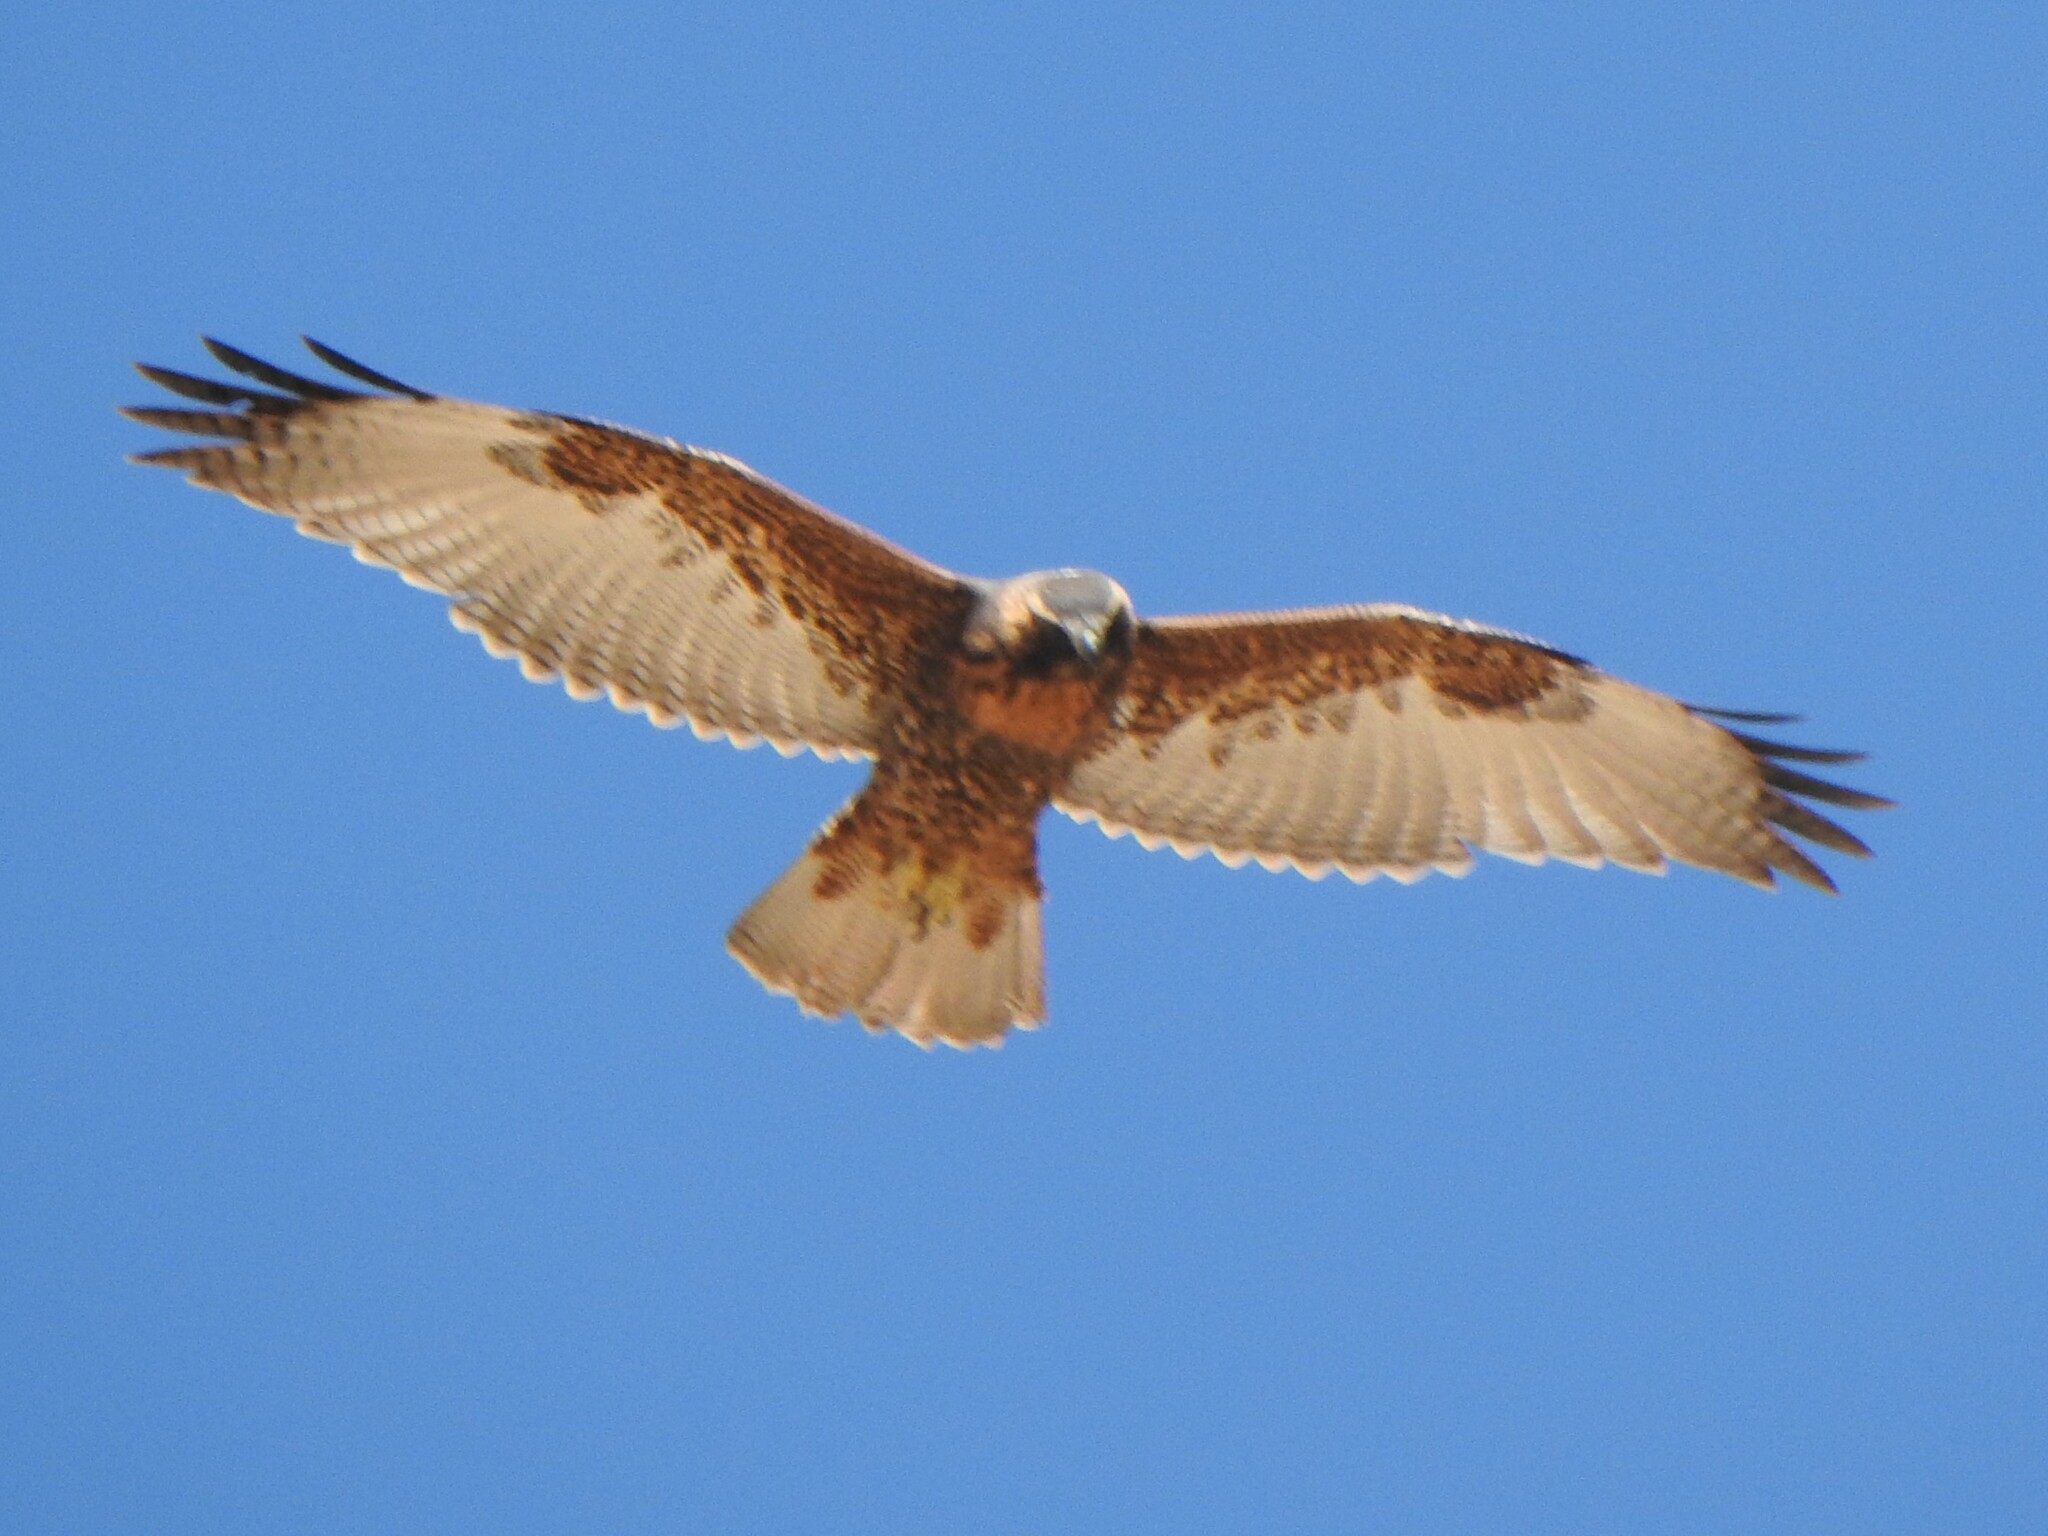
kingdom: Animalia
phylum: Chordata
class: Aves
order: Accipitriformes
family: Accipitridae
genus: Buteo
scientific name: Buteo polyosoma
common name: Variable hawk
